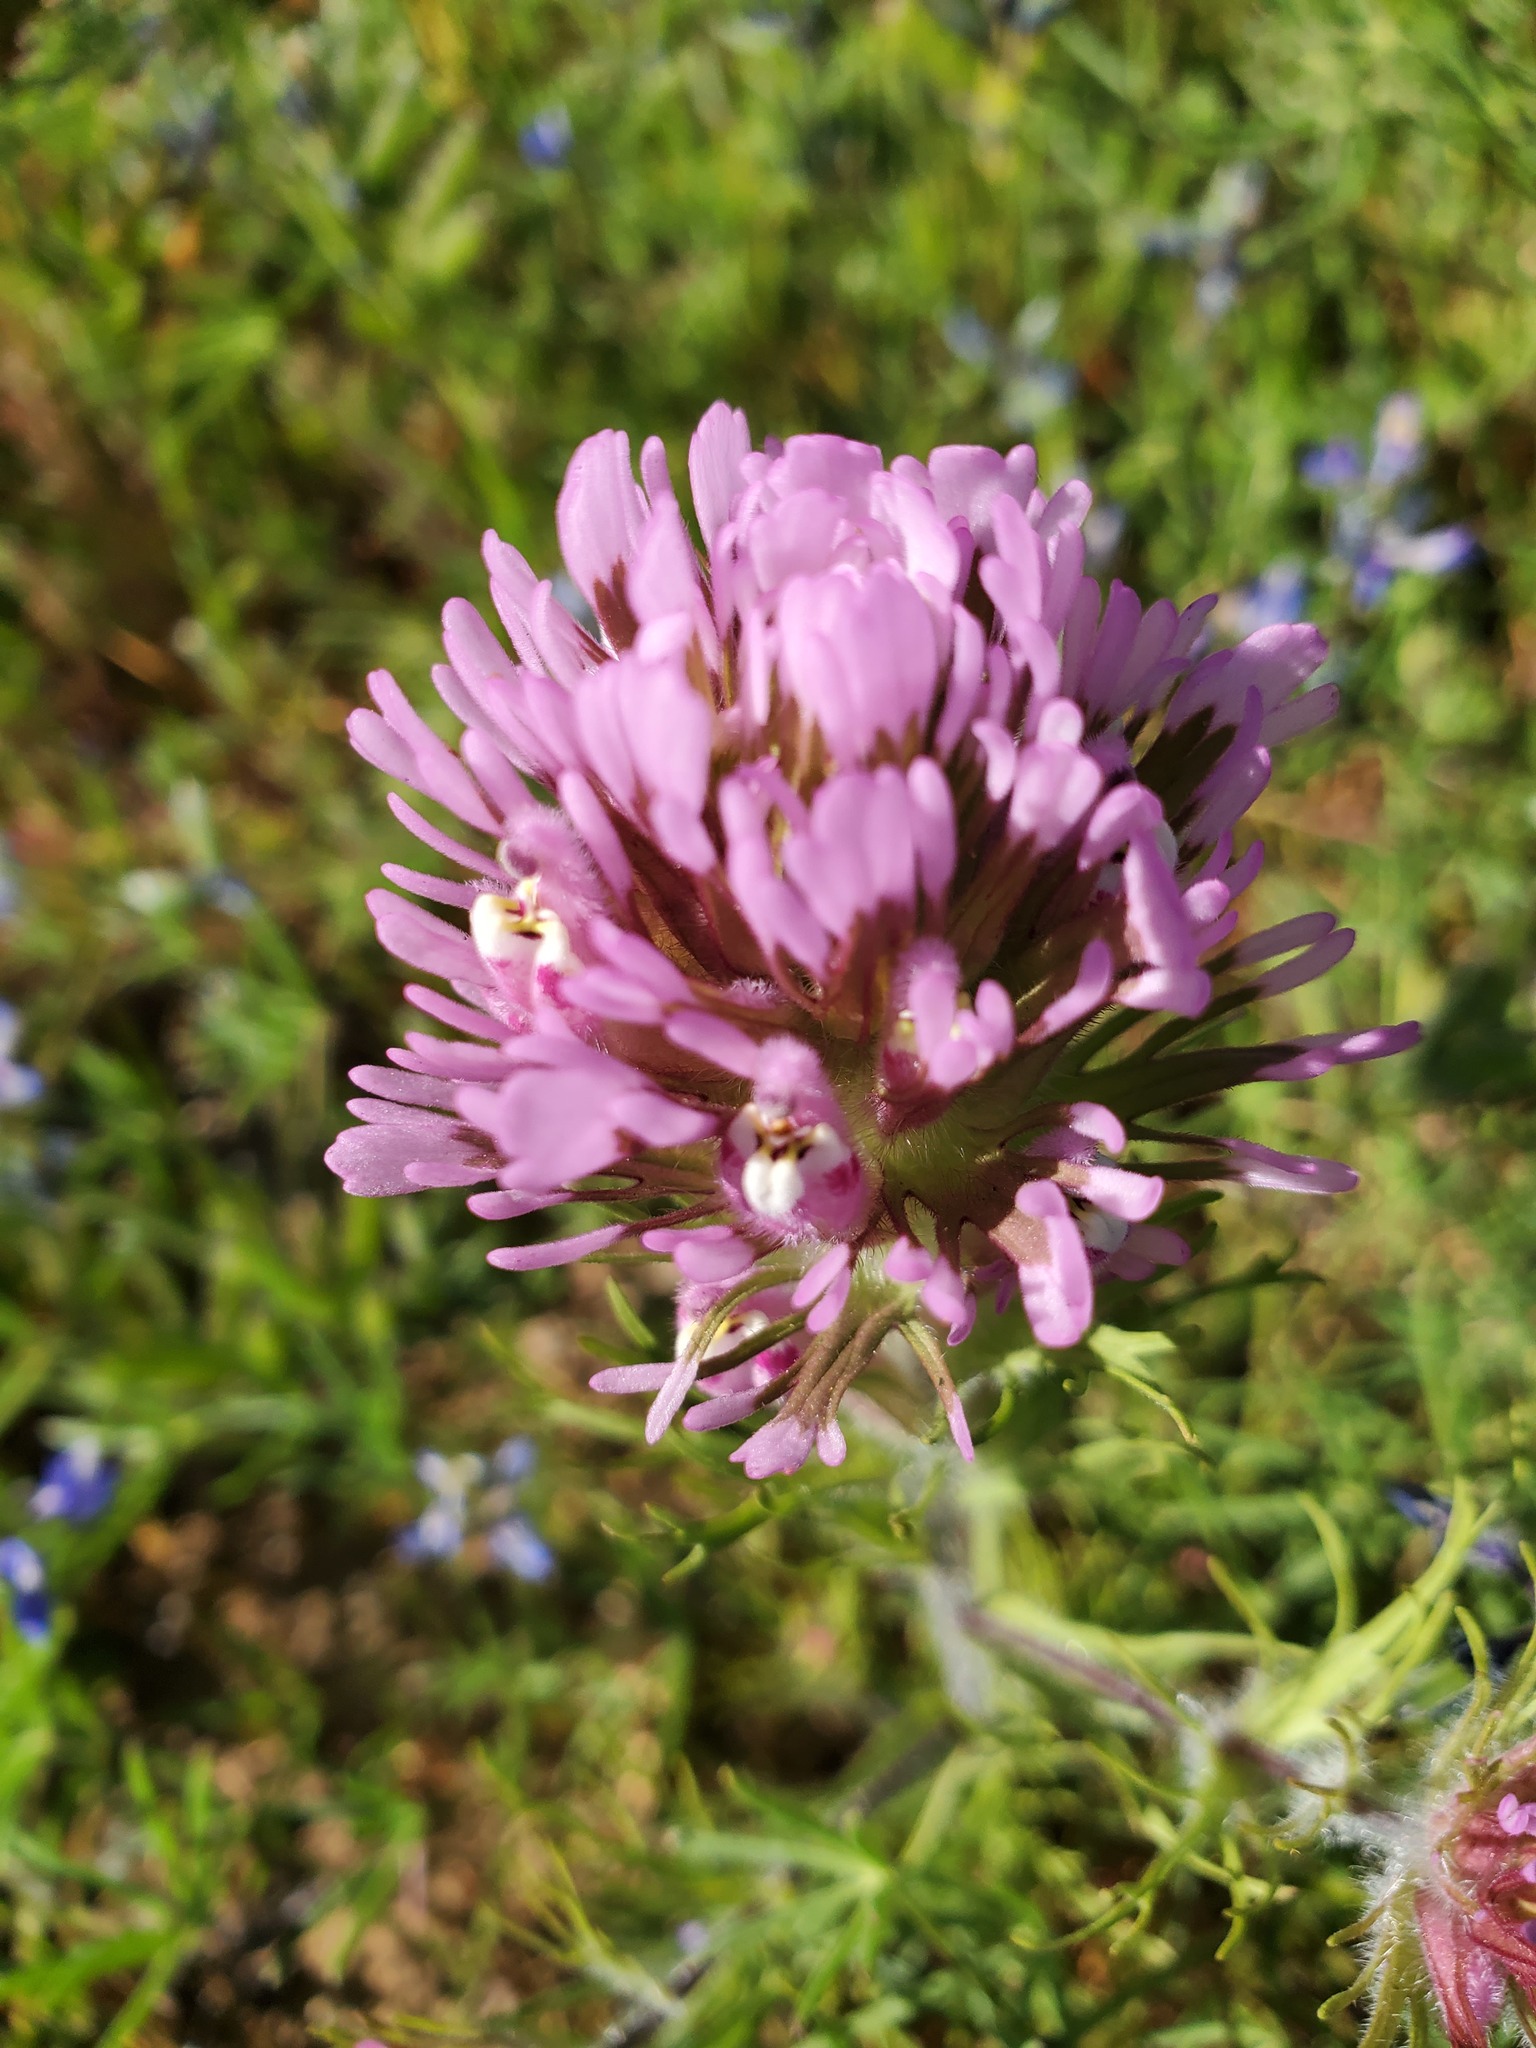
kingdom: Plantae
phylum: Tracheophyta
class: Magnoliopsida
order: Lamiales
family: Orobanchaceae
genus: Castilleja
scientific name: Castilleja exserta
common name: Purple owl-clover
